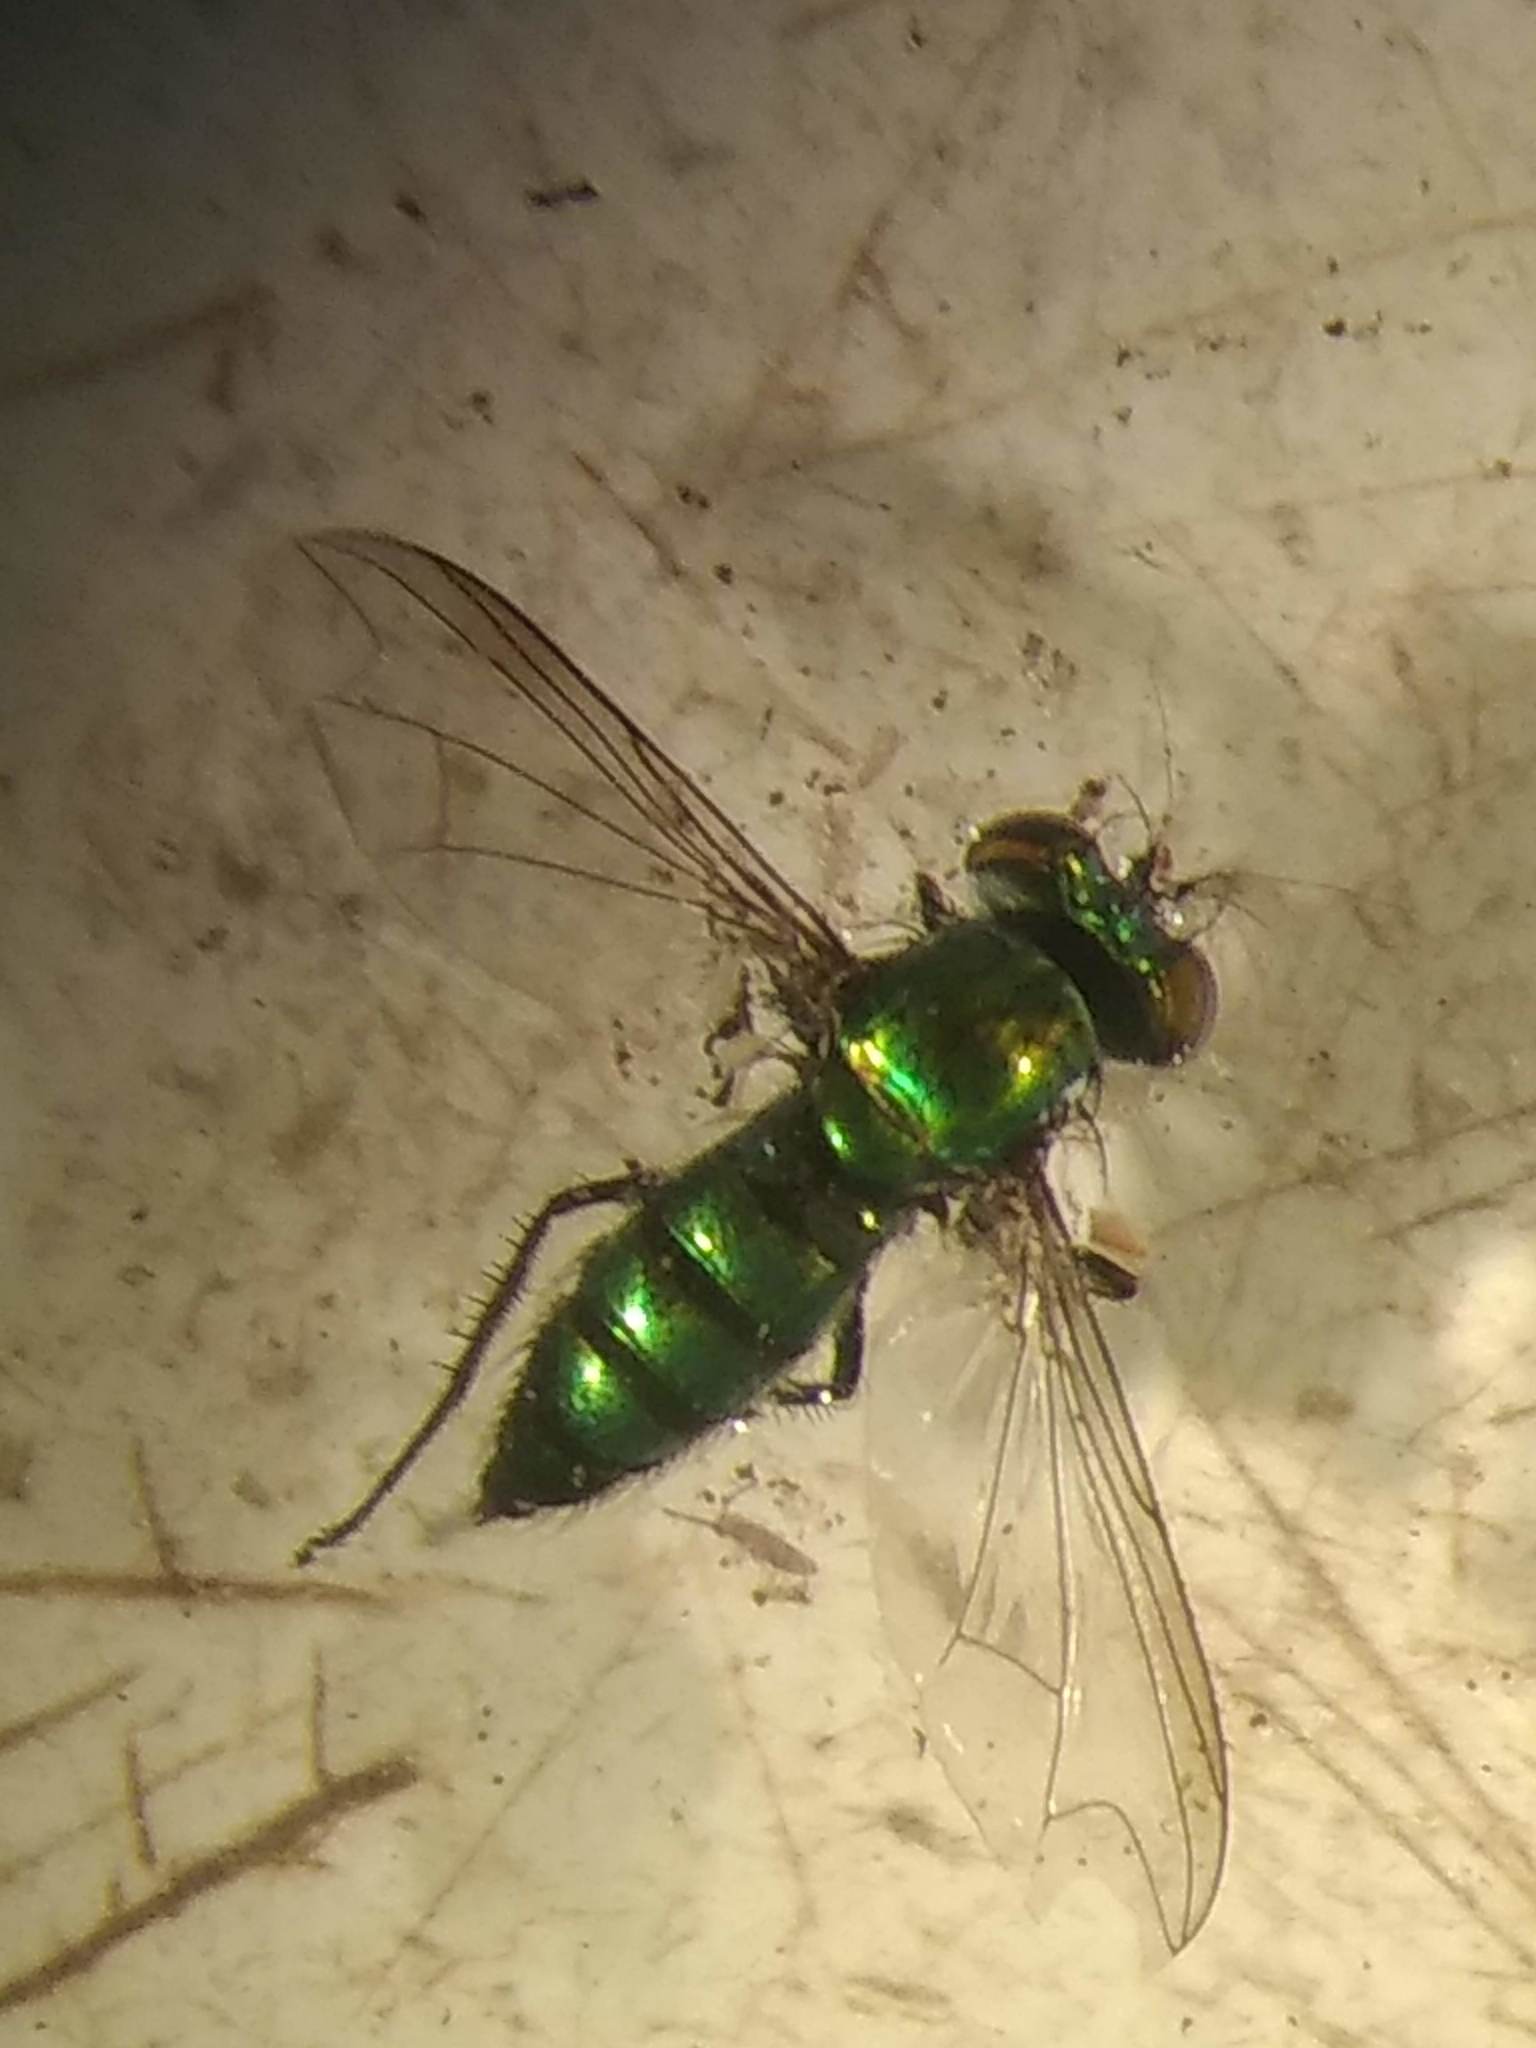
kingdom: Animalia
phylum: Arthropoda
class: Insecta
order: Diptera
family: Dolichopodidae
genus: Condylostylus
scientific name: Condylostylus longicornis
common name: Long-legged fly
